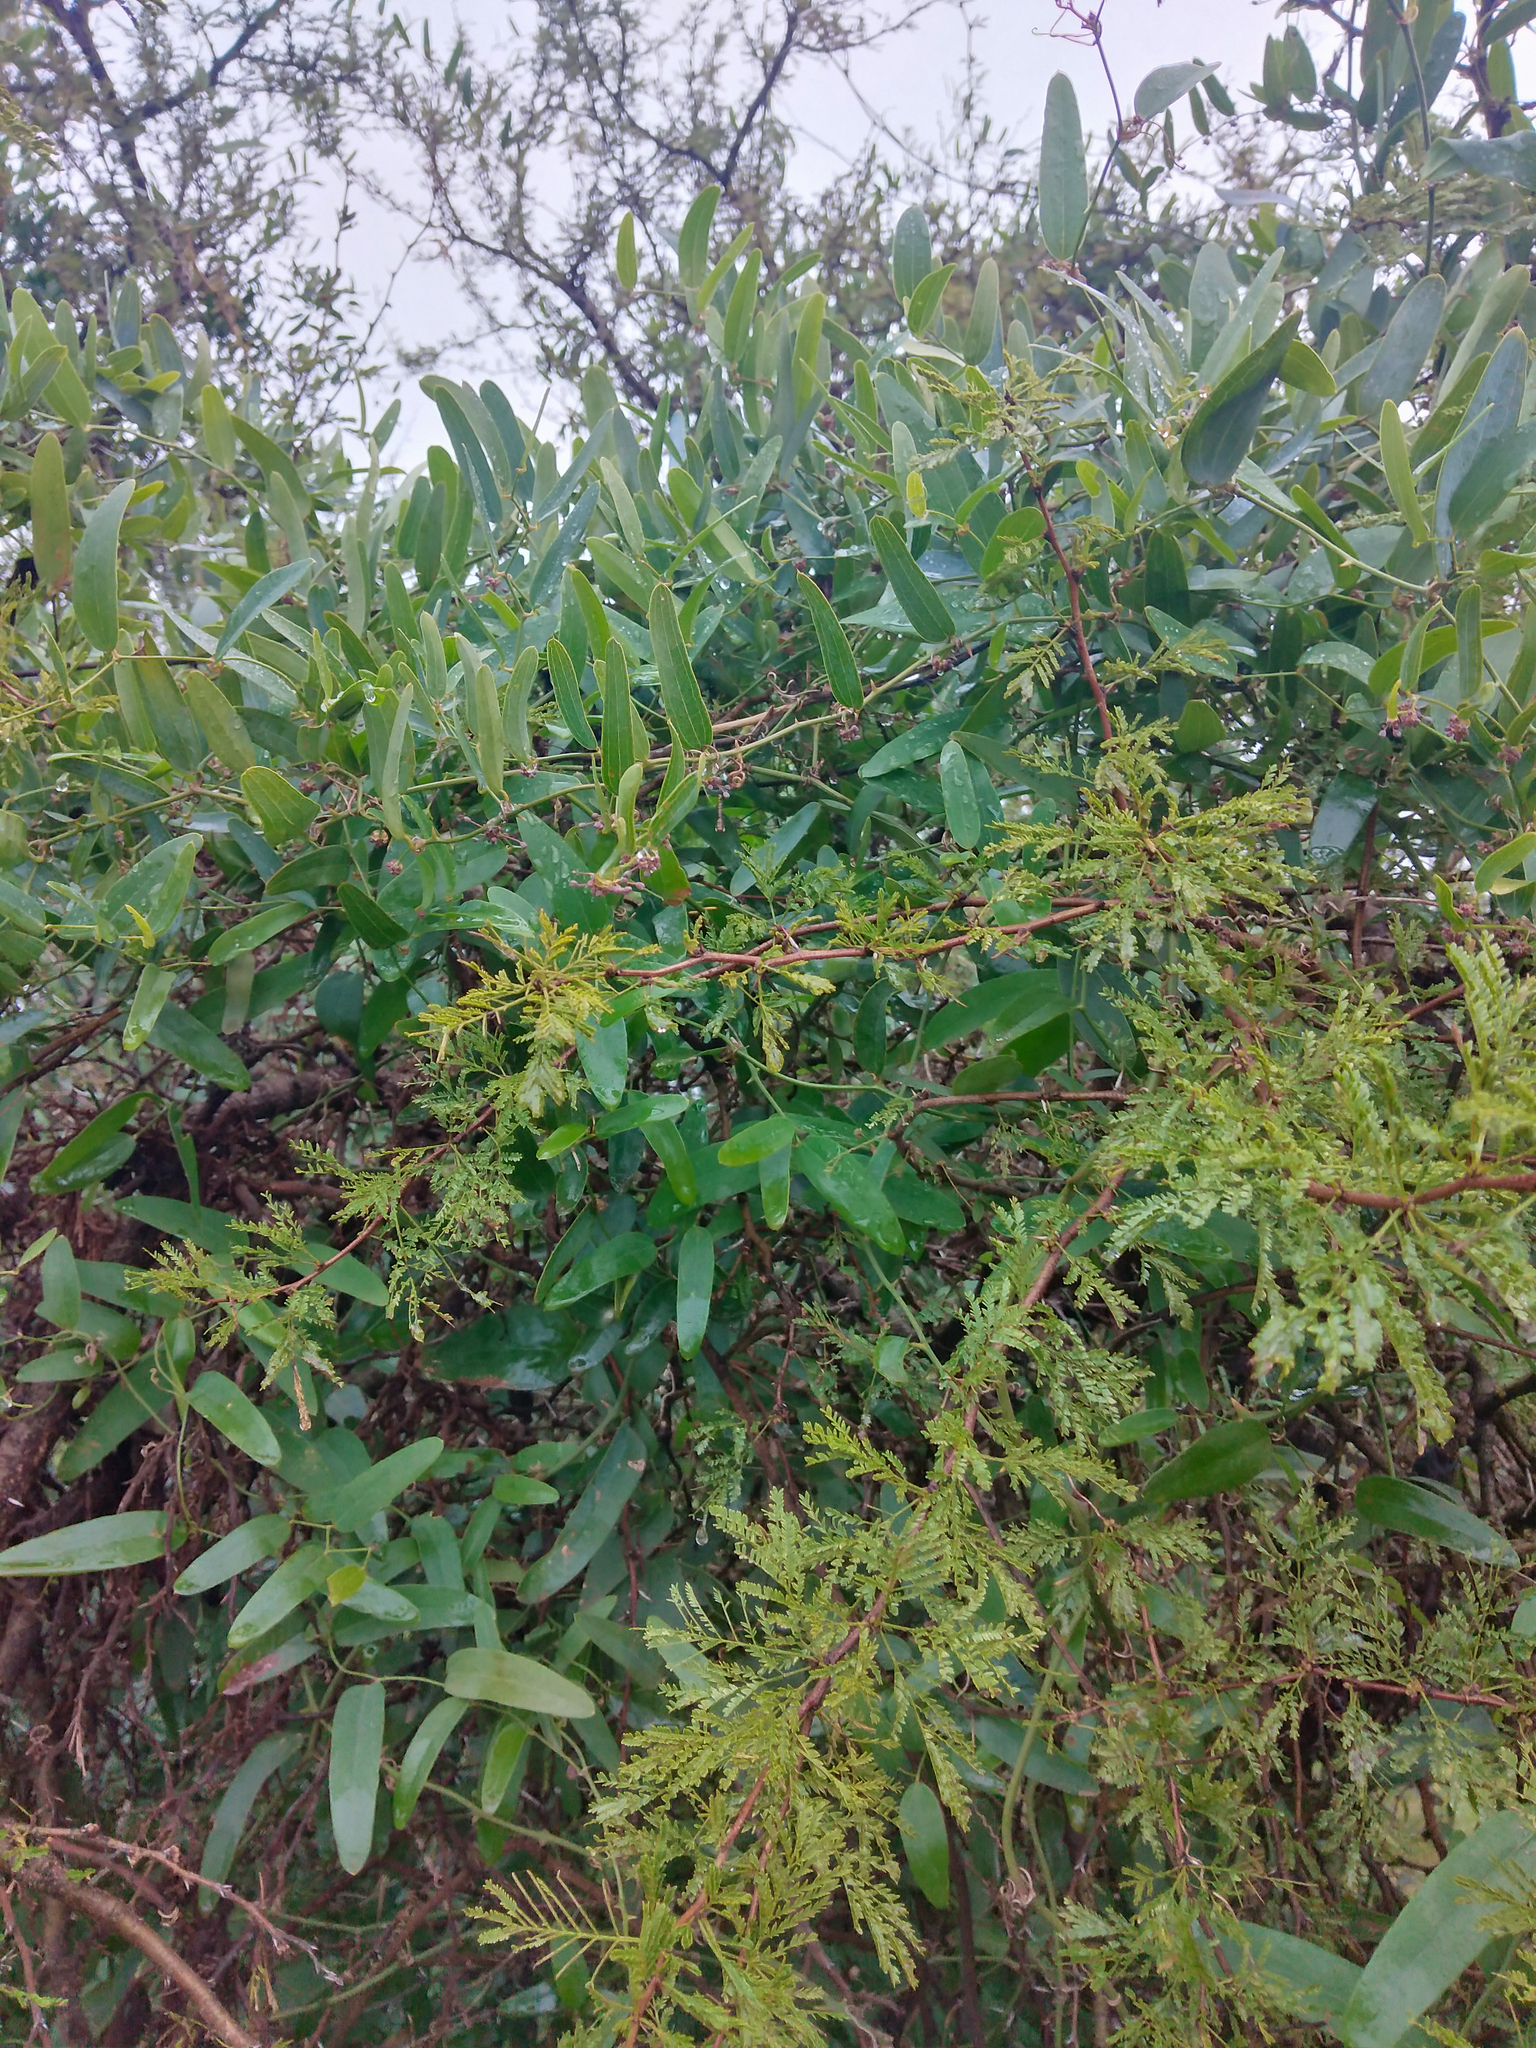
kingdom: Plantae
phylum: Tracheophyta
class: Liliopsida
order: Liliales
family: Smilacaceae
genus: Smilax
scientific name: Smilax campestris
